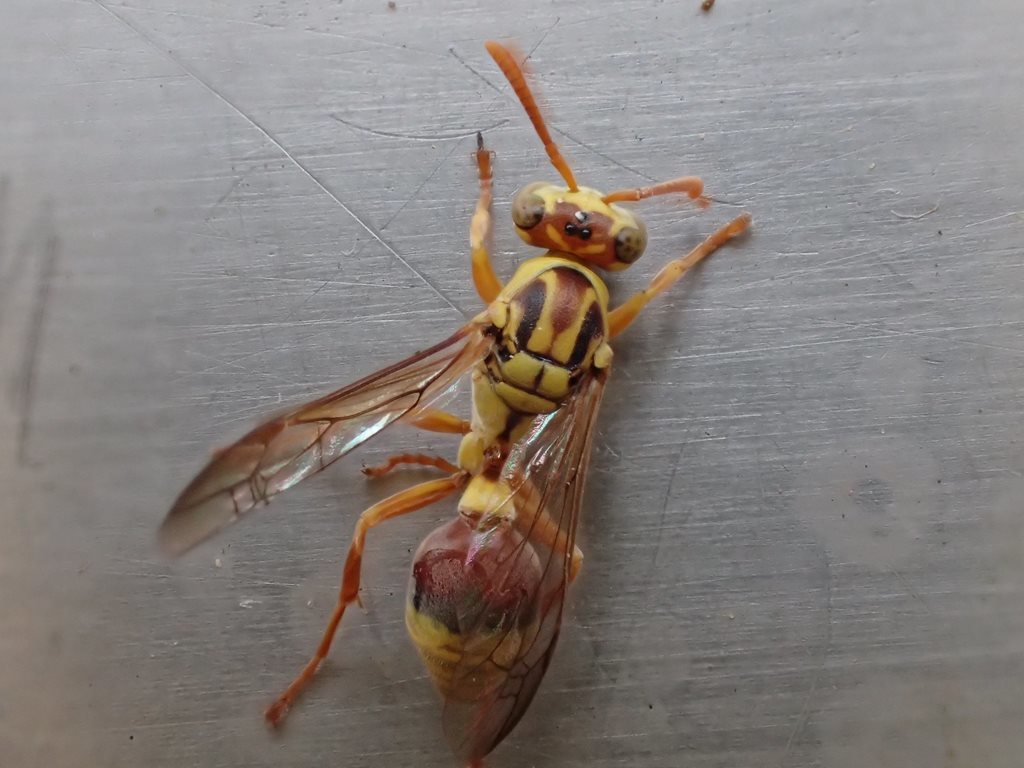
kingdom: Animalia
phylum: Arthropoda
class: Insecta
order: Hymenoptera
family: Vespidae
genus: Ropalidia
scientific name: Ropalidia romandi
